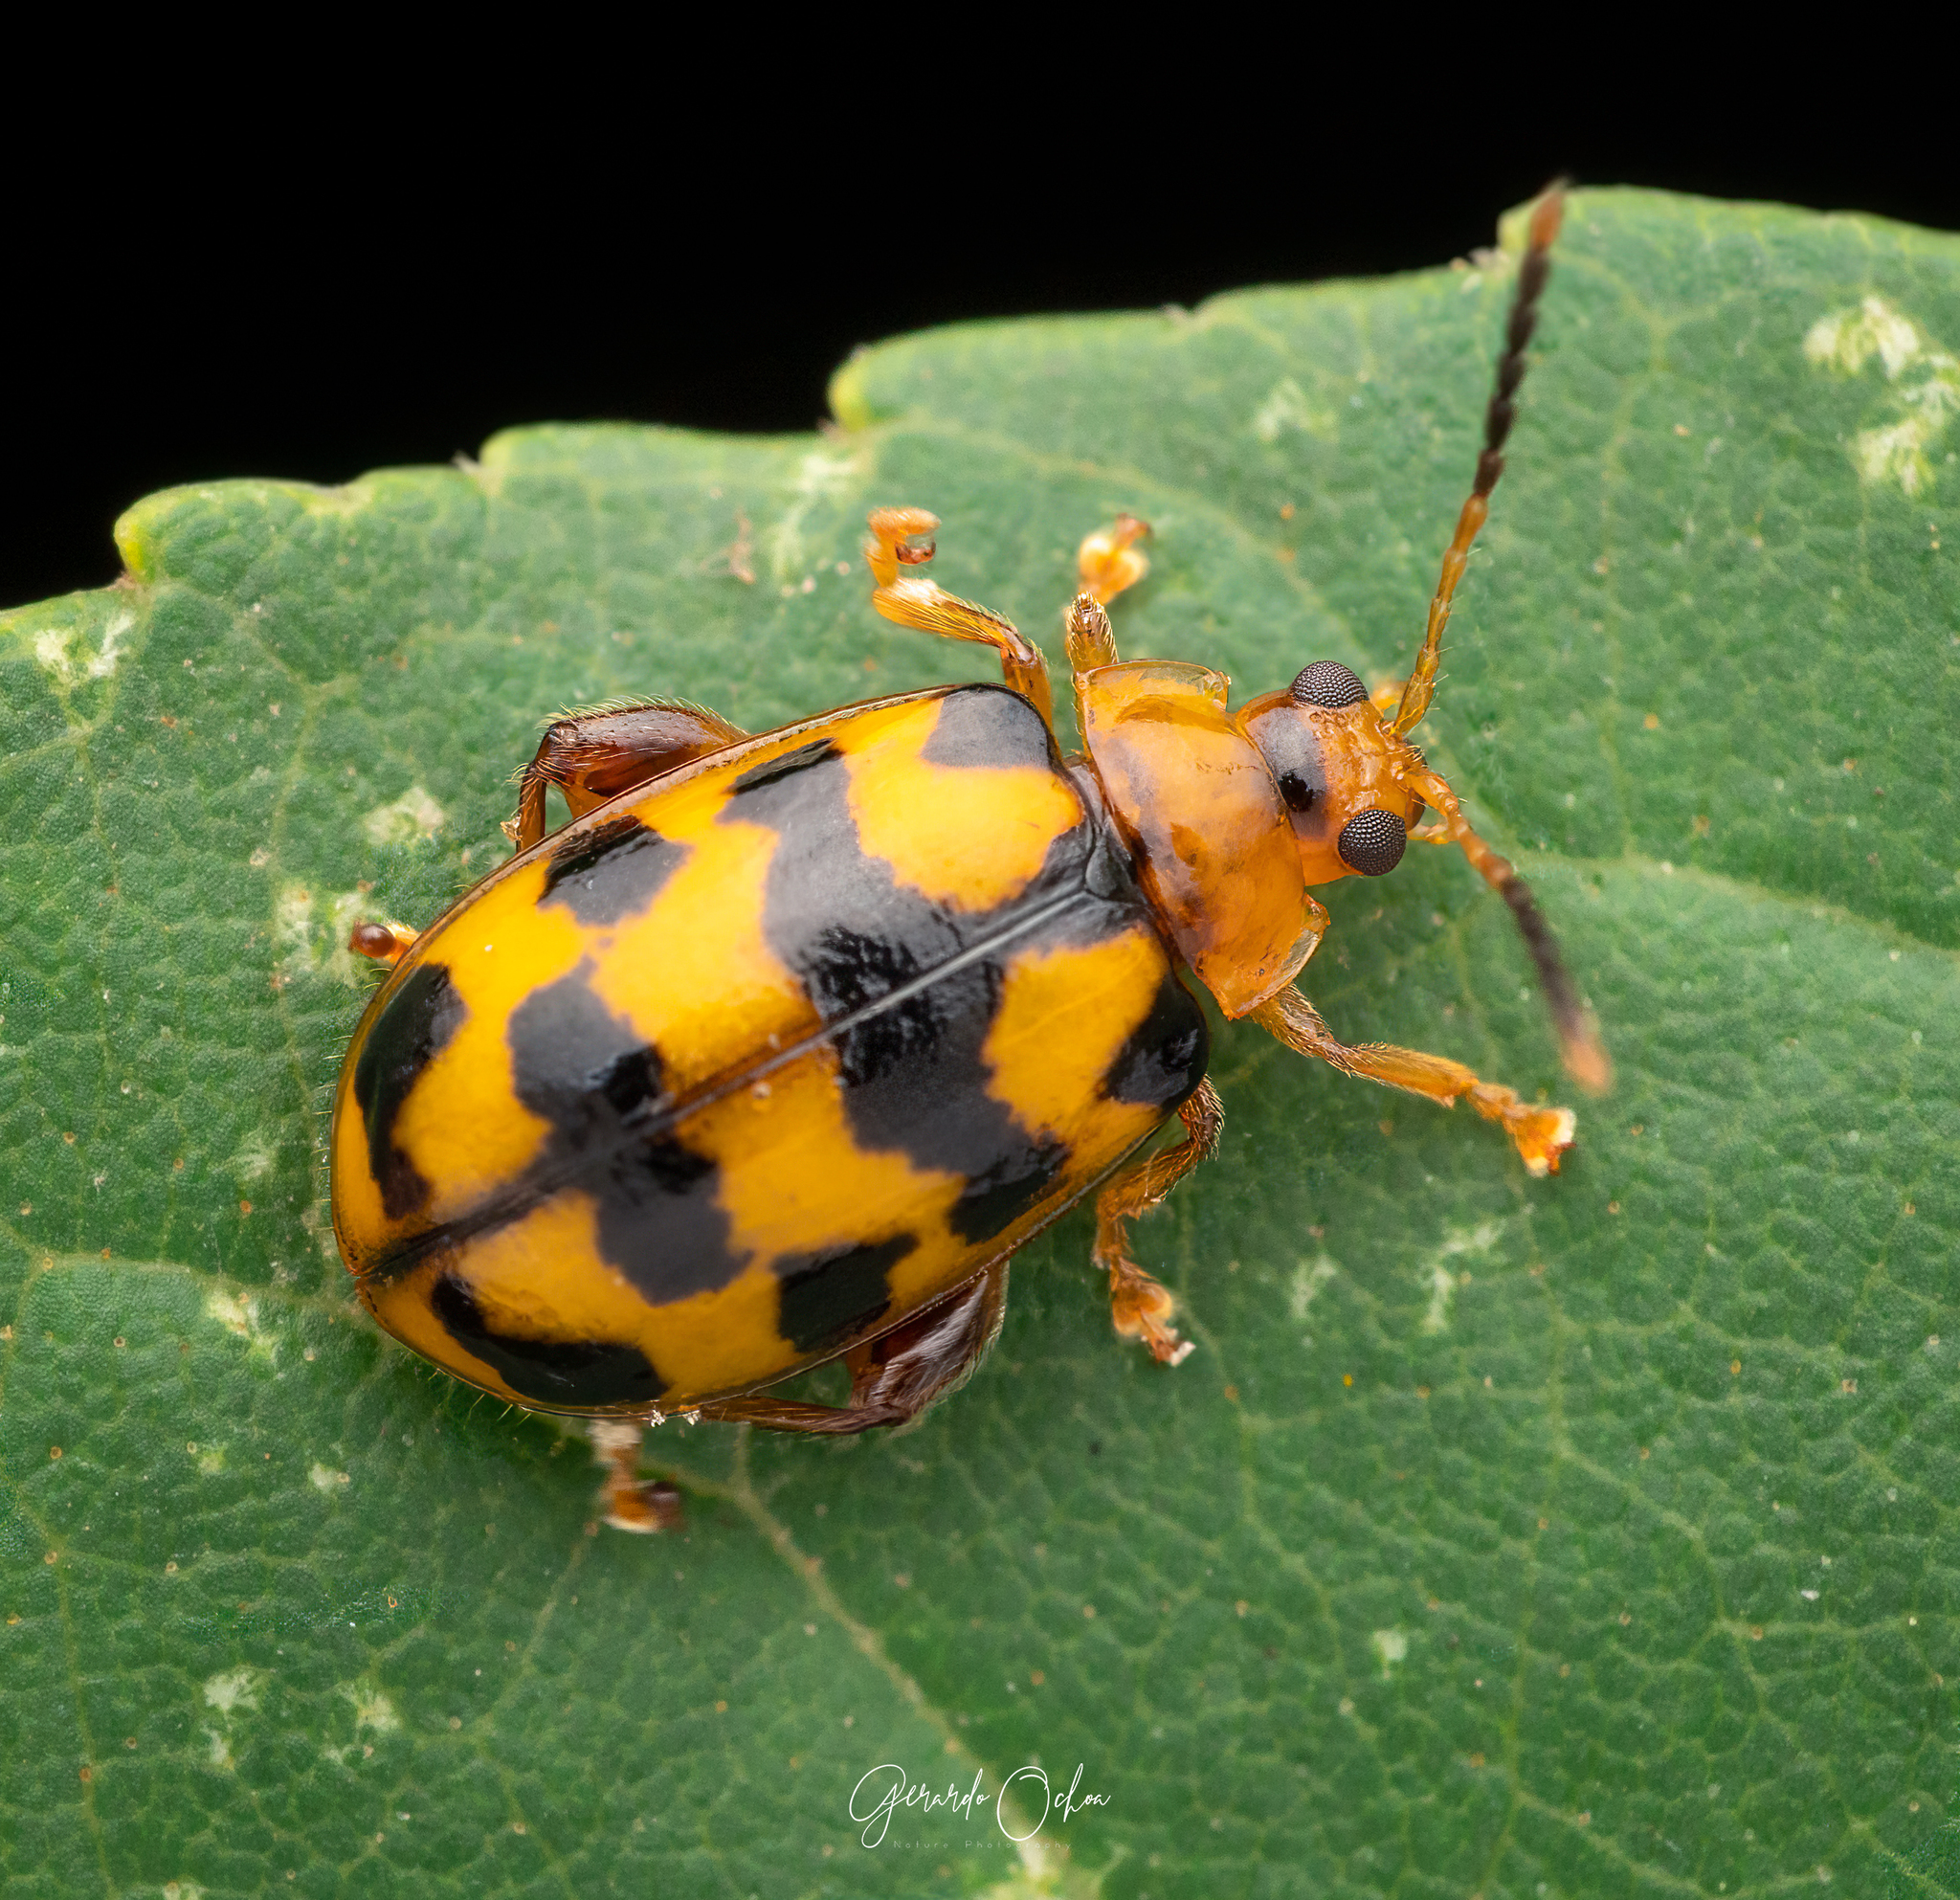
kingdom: Animalia
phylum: Arthropoda
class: Insecta
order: Coleoptera
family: Chrysomelidae
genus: Alagoasa
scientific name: Alagoasa
